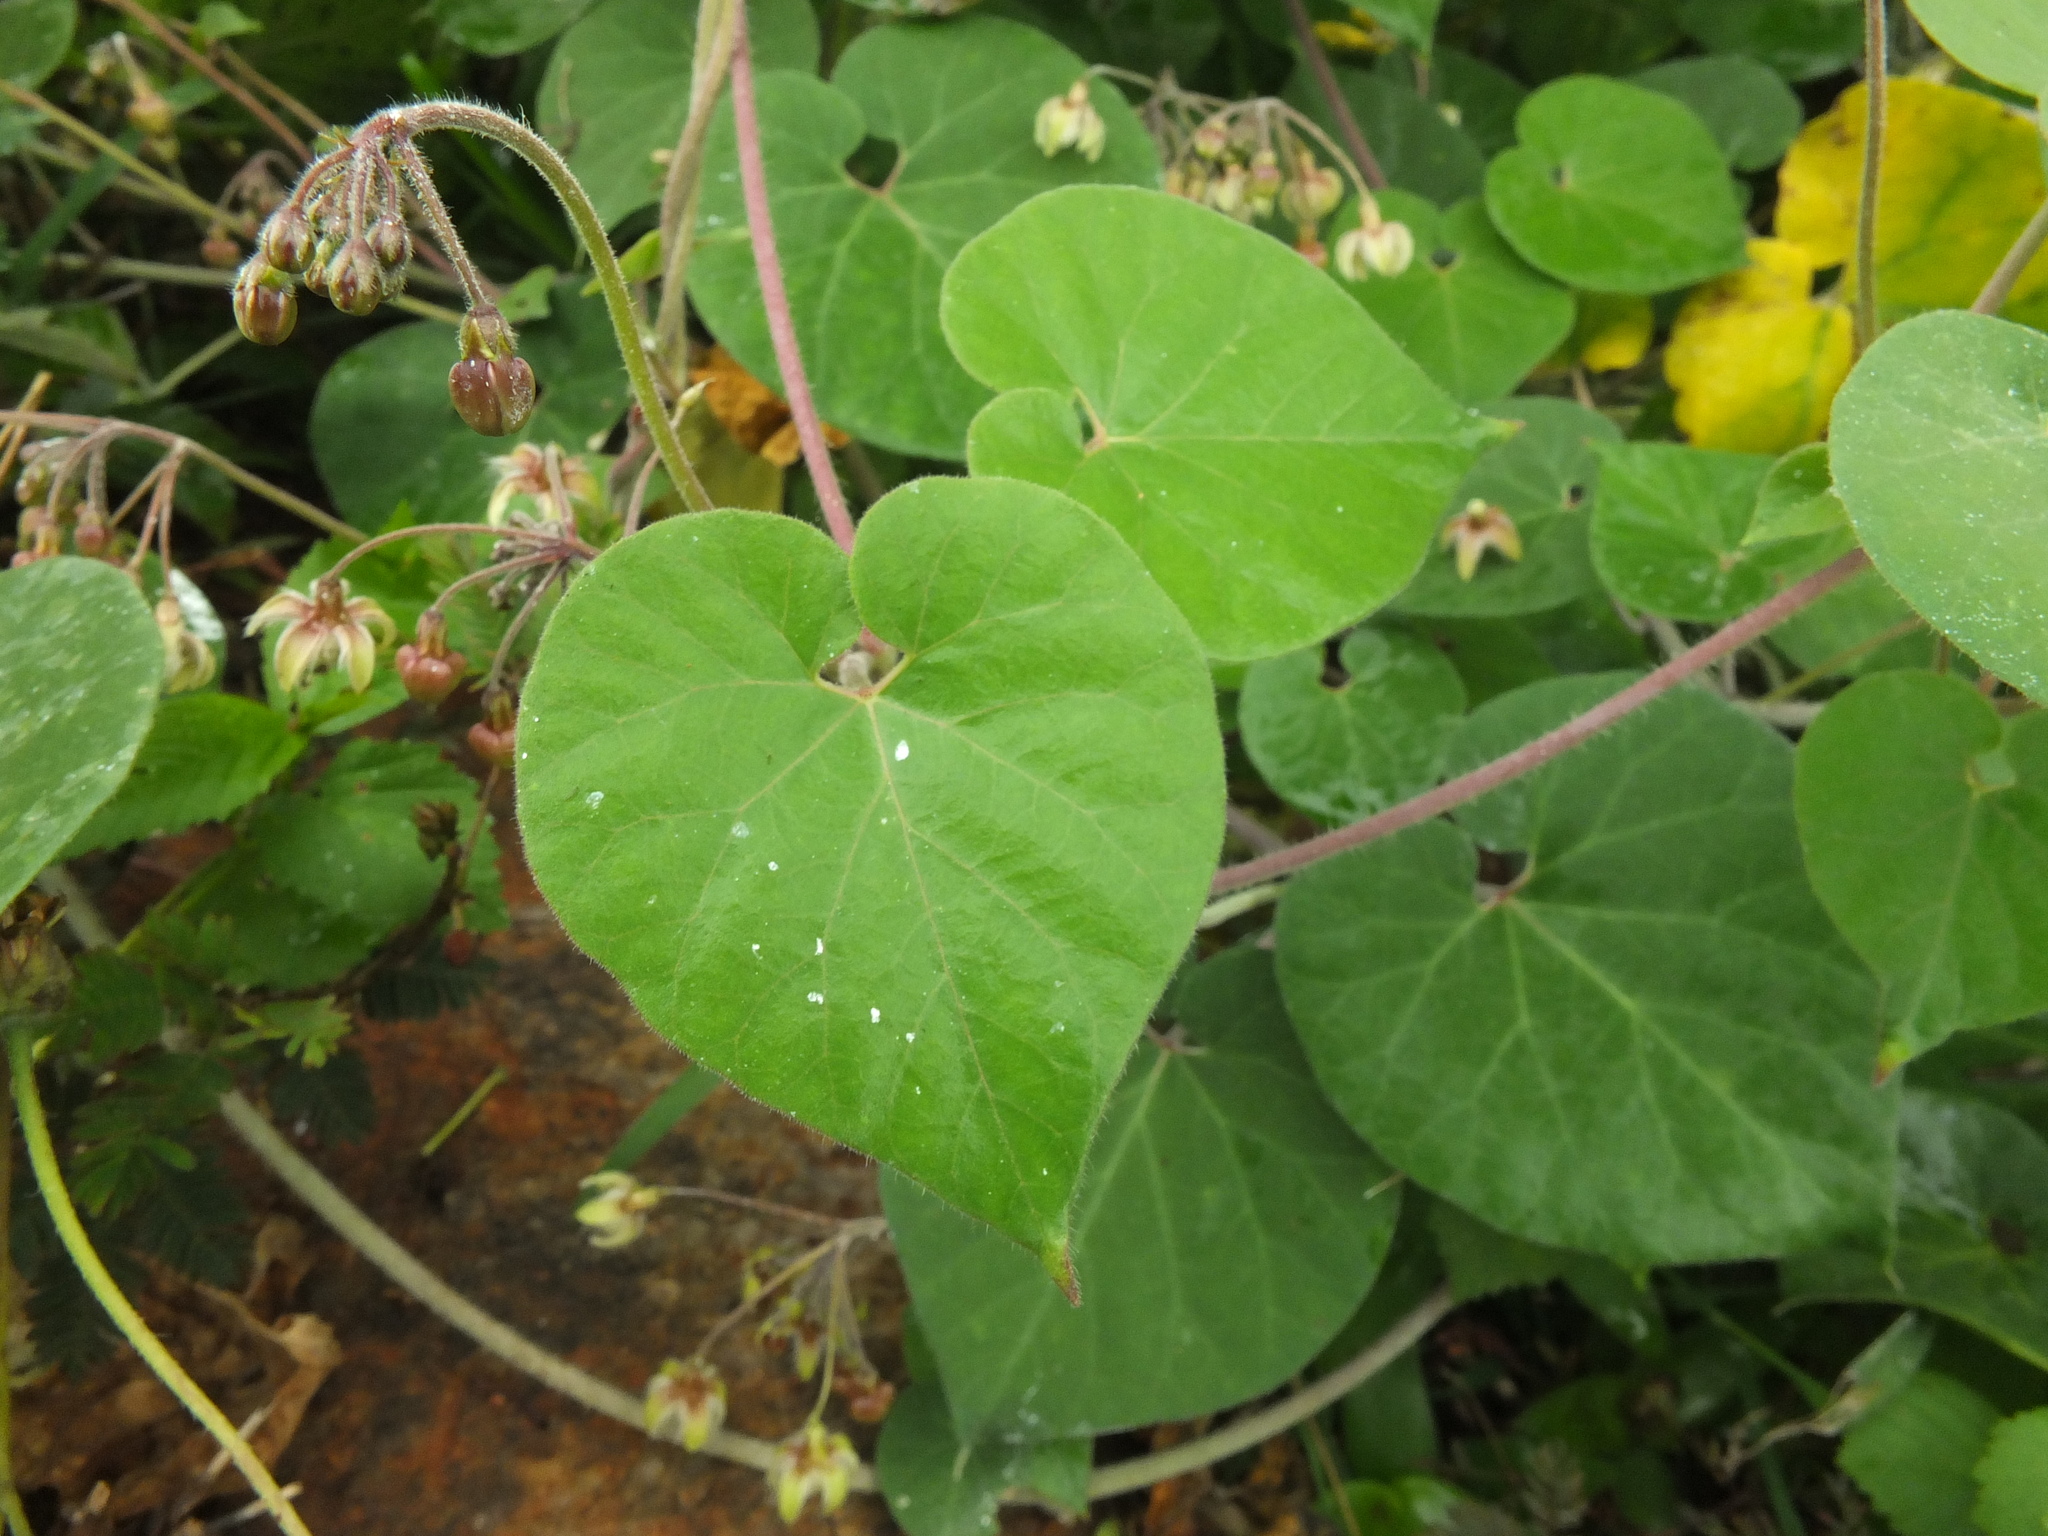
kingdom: Plantae
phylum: Tracheophyta
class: Magnoliopsida
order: Gentianales
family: Apocynaceae
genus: Pergularia
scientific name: Pergularia daemia
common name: Trellis-vine
